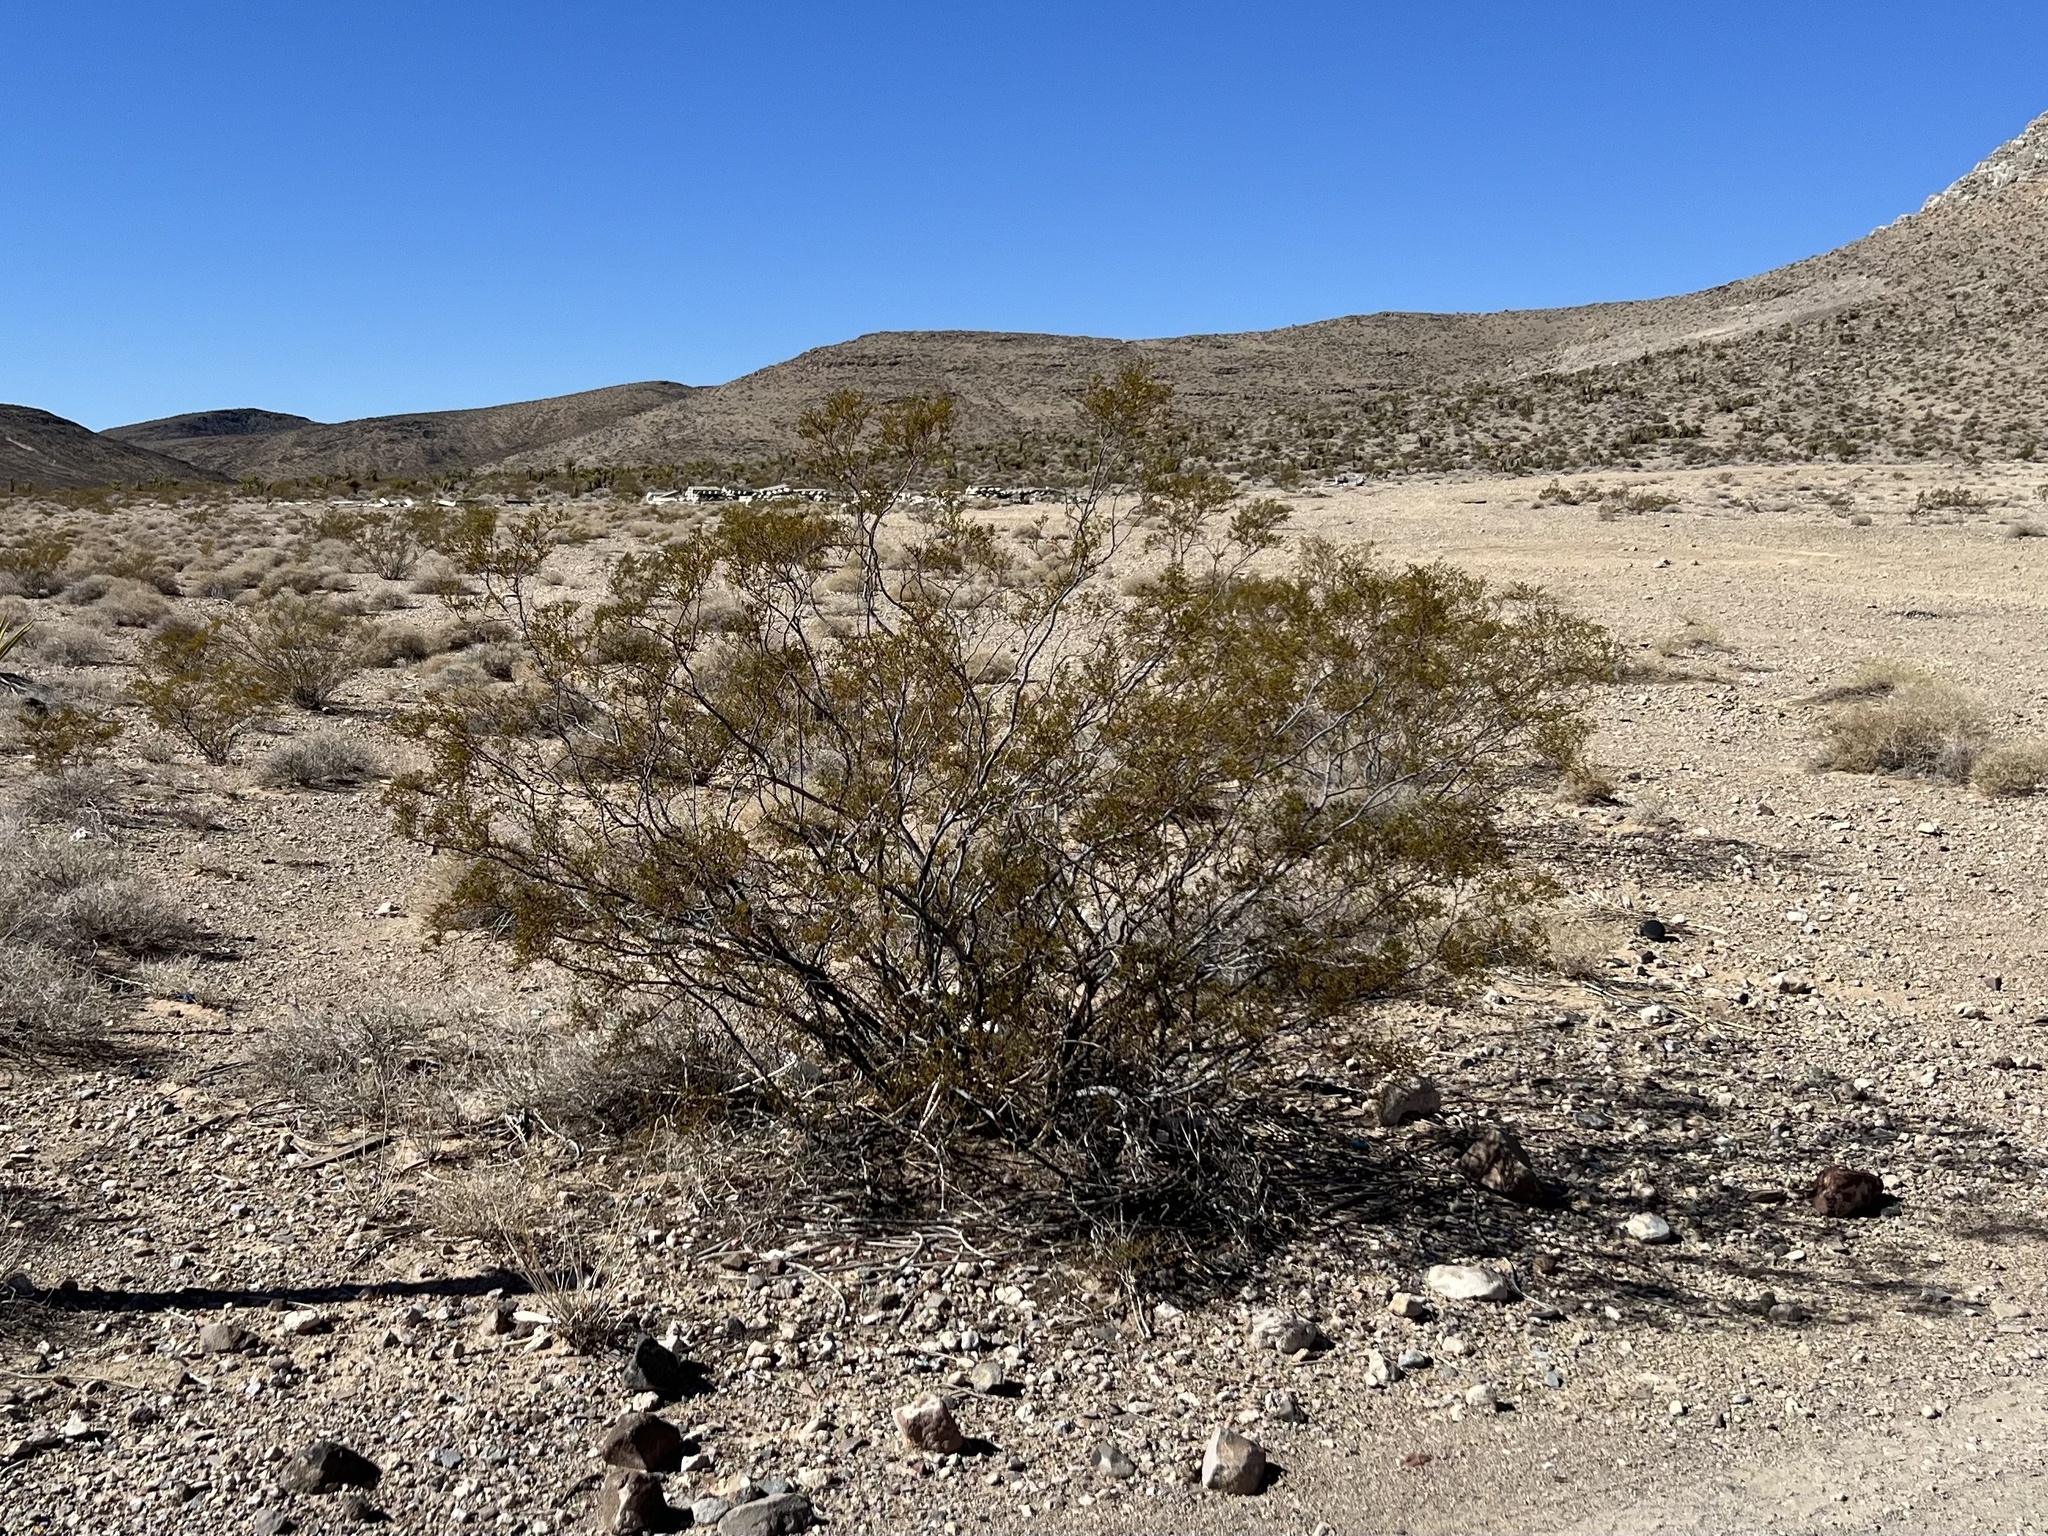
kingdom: Plantae
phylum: Tracheophyta
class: Magnoliopsida
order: Zygophyllales
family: Zygophyllaceae
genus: Larrea
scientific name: Larrea tridentata
